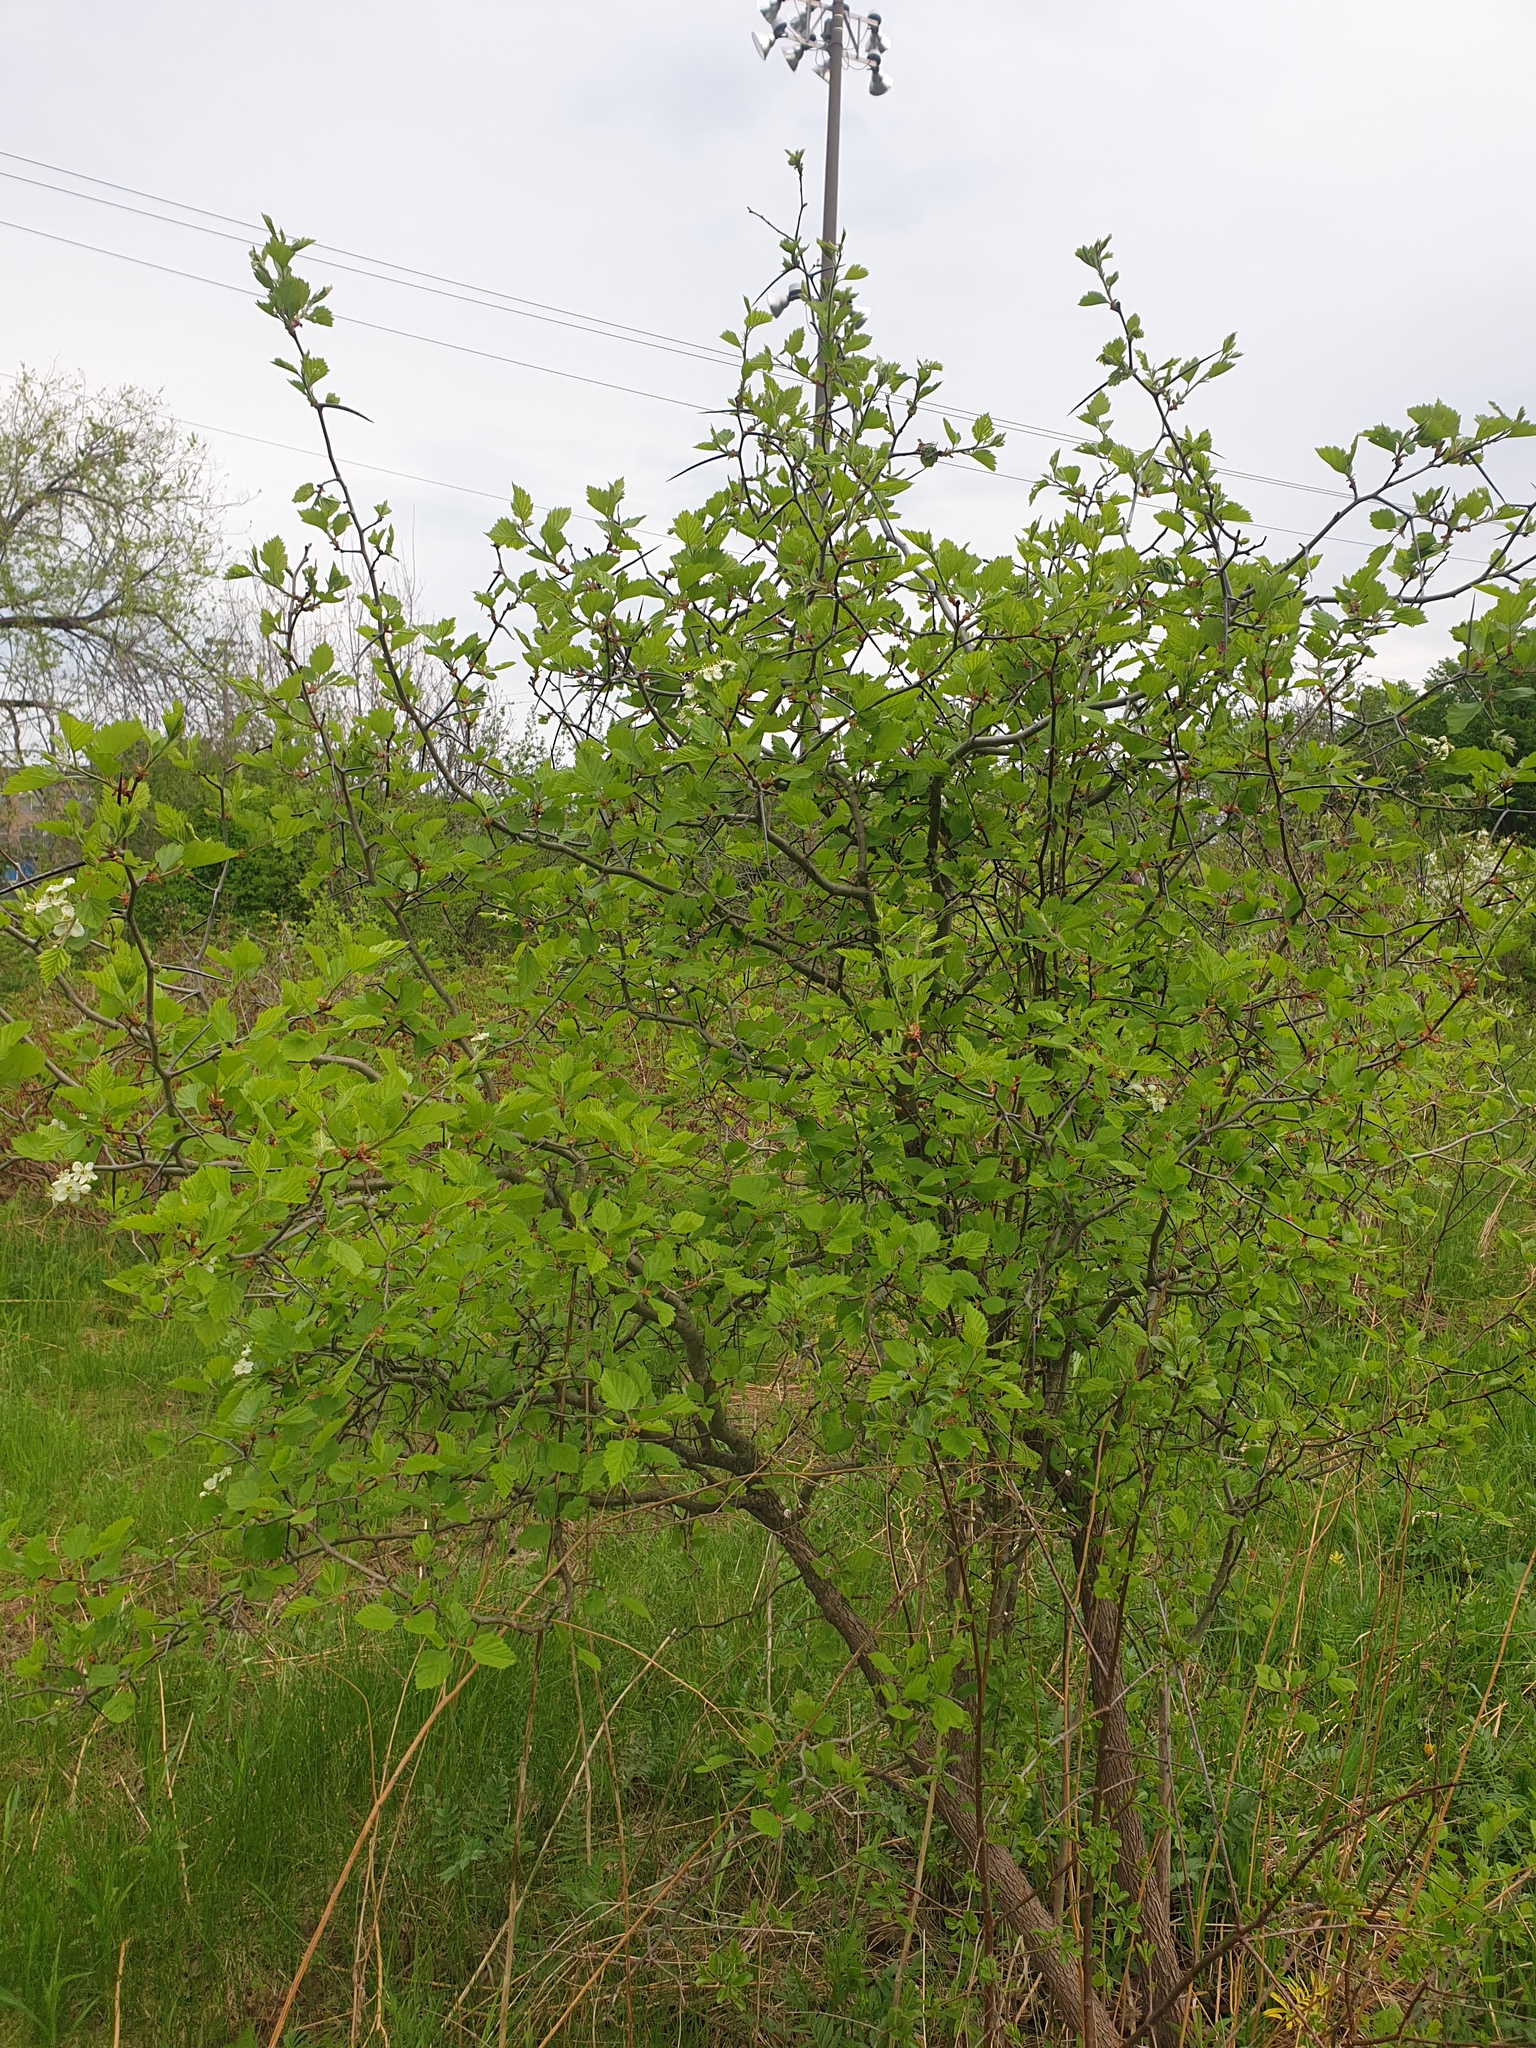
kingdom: Plantae
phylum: Tracheophyta
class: Magnoliopsida
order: Rosales
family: Rosaceae
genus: Crataegus
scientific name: Crataegus submollis
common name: Hairy cockspurthorn
